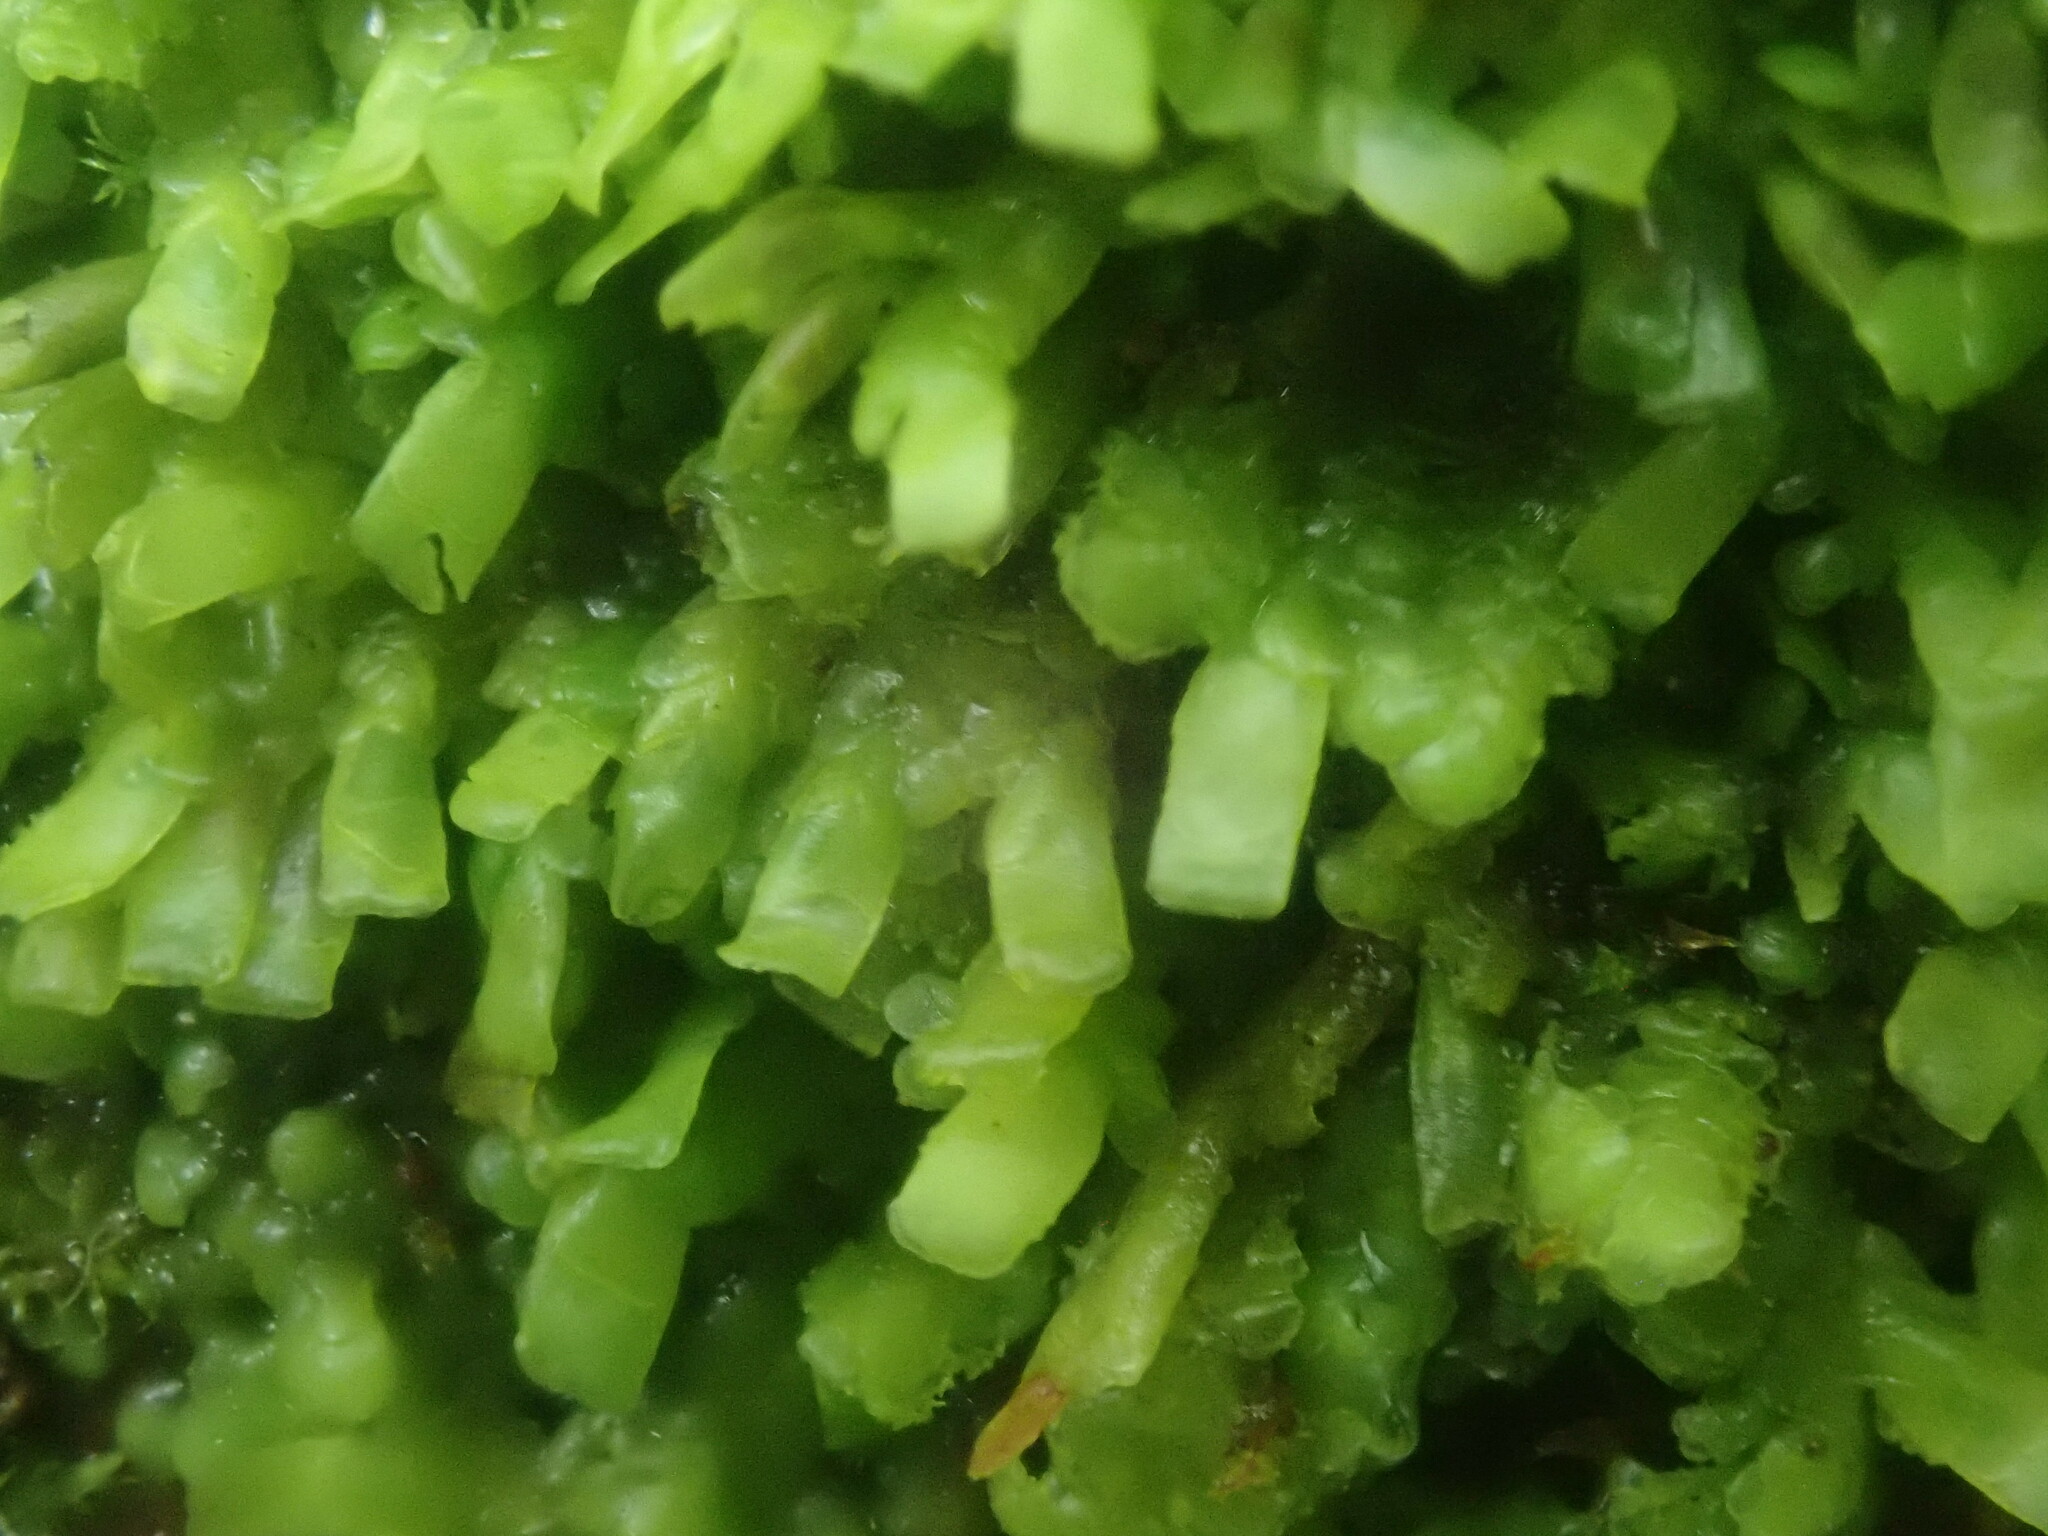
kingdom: Plantae
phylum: Marchantiophyta
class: Jungermanniopsida
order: Porellales
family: Radulaceae
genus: Radula
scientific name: Radula complanata
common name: Flat-leaved scalewort
